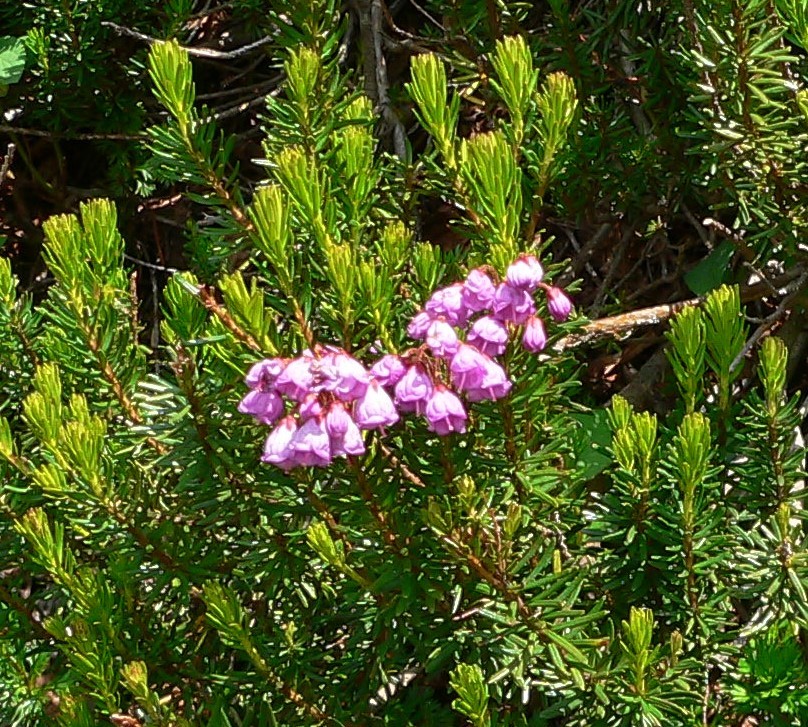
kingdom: Plantae
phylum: Tracheophyta
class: Magnoliopsida
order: Ericales
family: Ericaceae
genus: Phyllodoce
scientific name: Phyllodoce empetriformis
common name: Pink mountain heather
